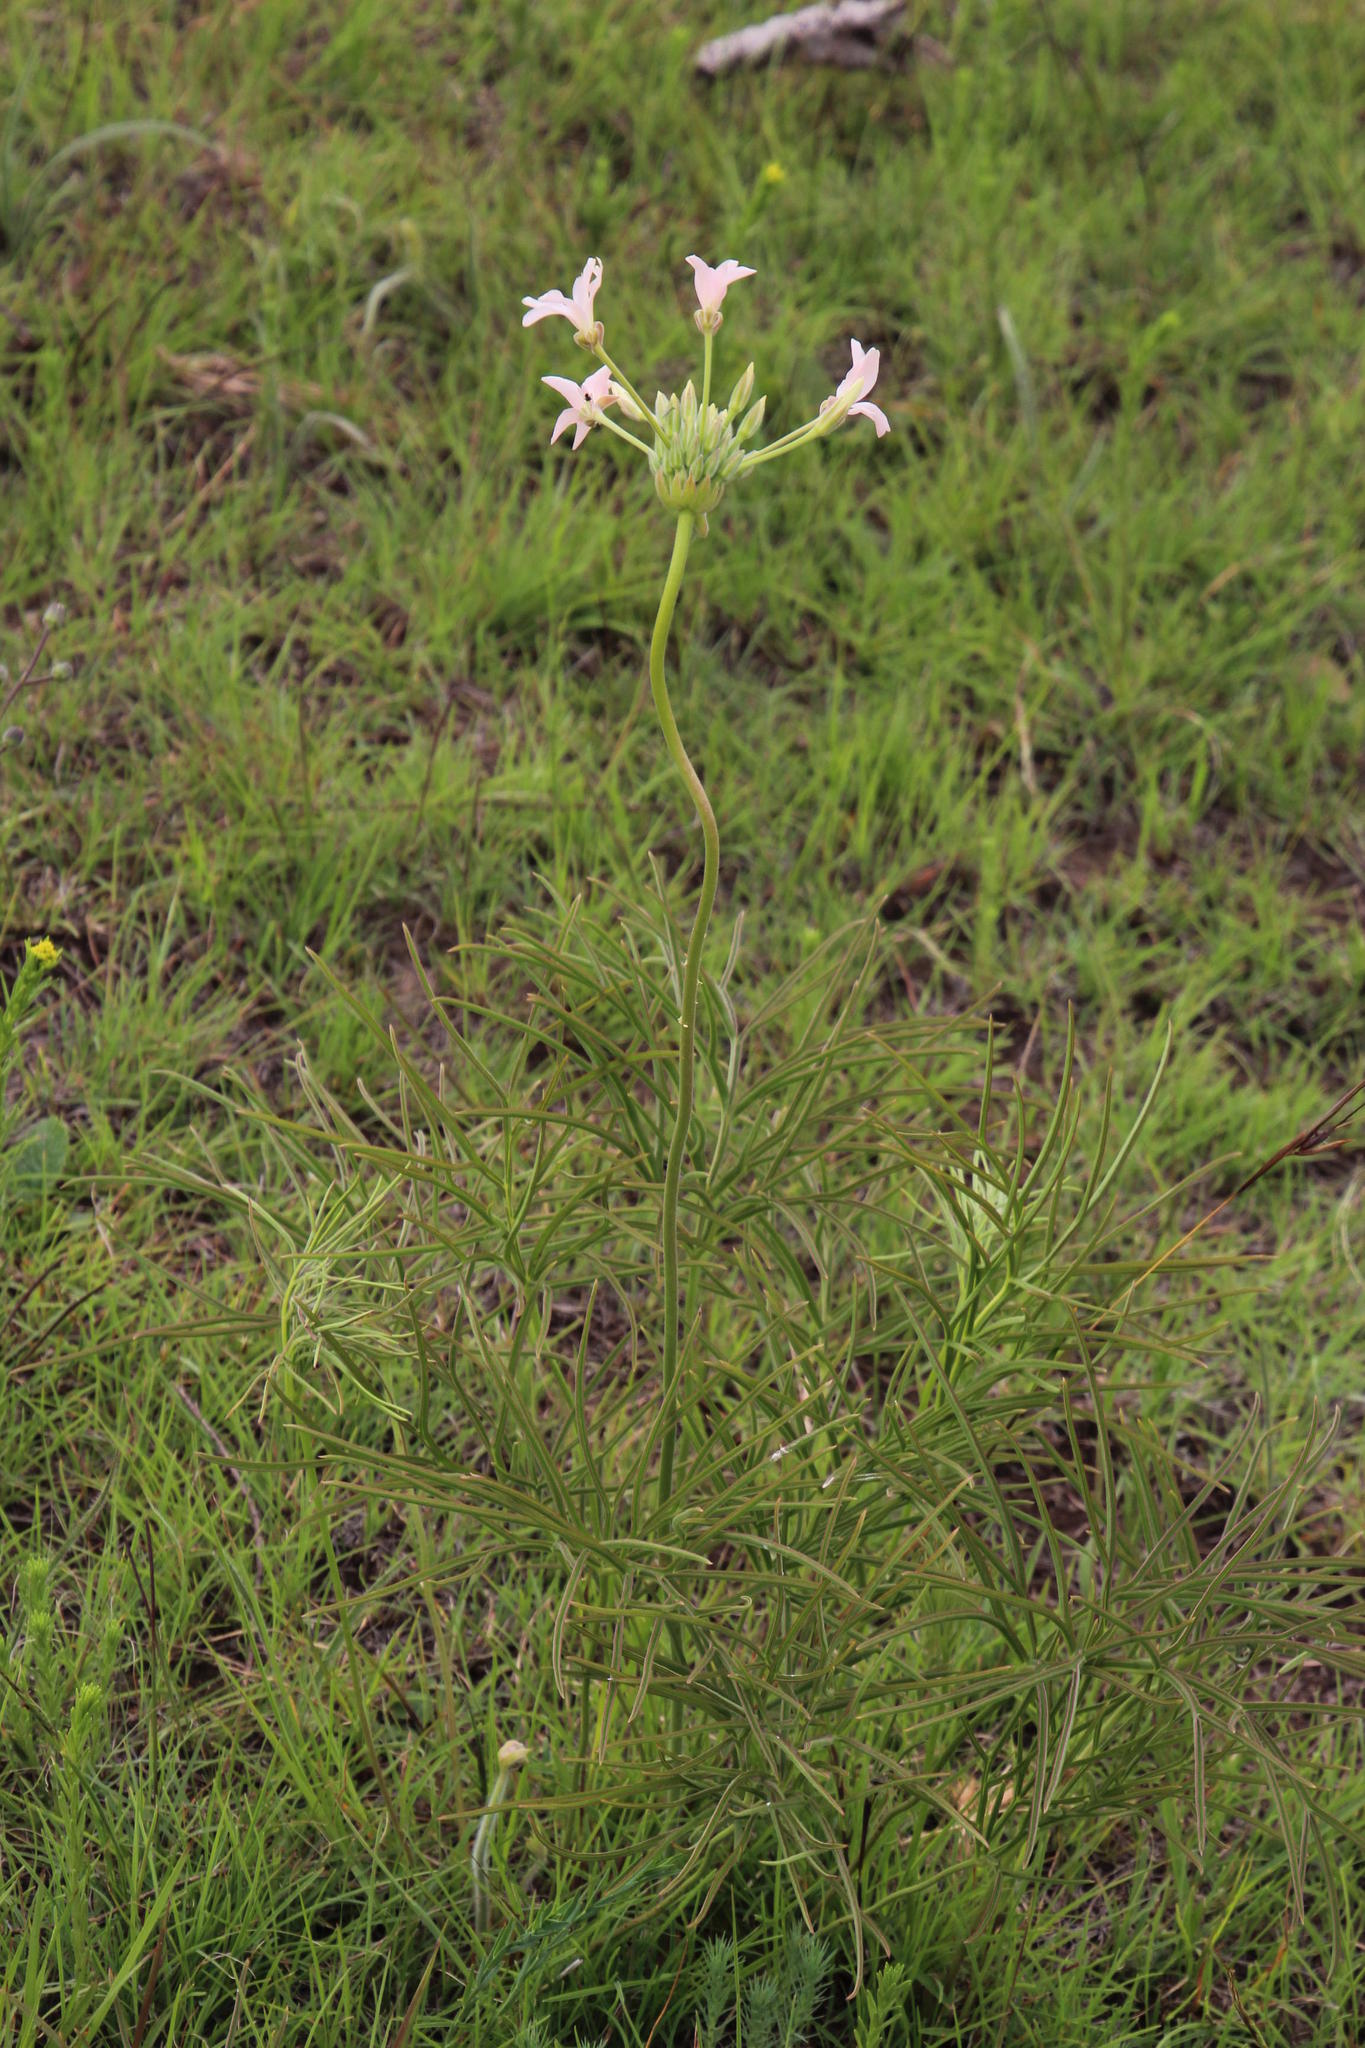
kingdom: Plantae
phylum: Tracheophyta
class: Magnoliopsida
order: Geraniales
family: Geraniaceae
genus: Pelargonium
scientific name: Pelargonium luridum
